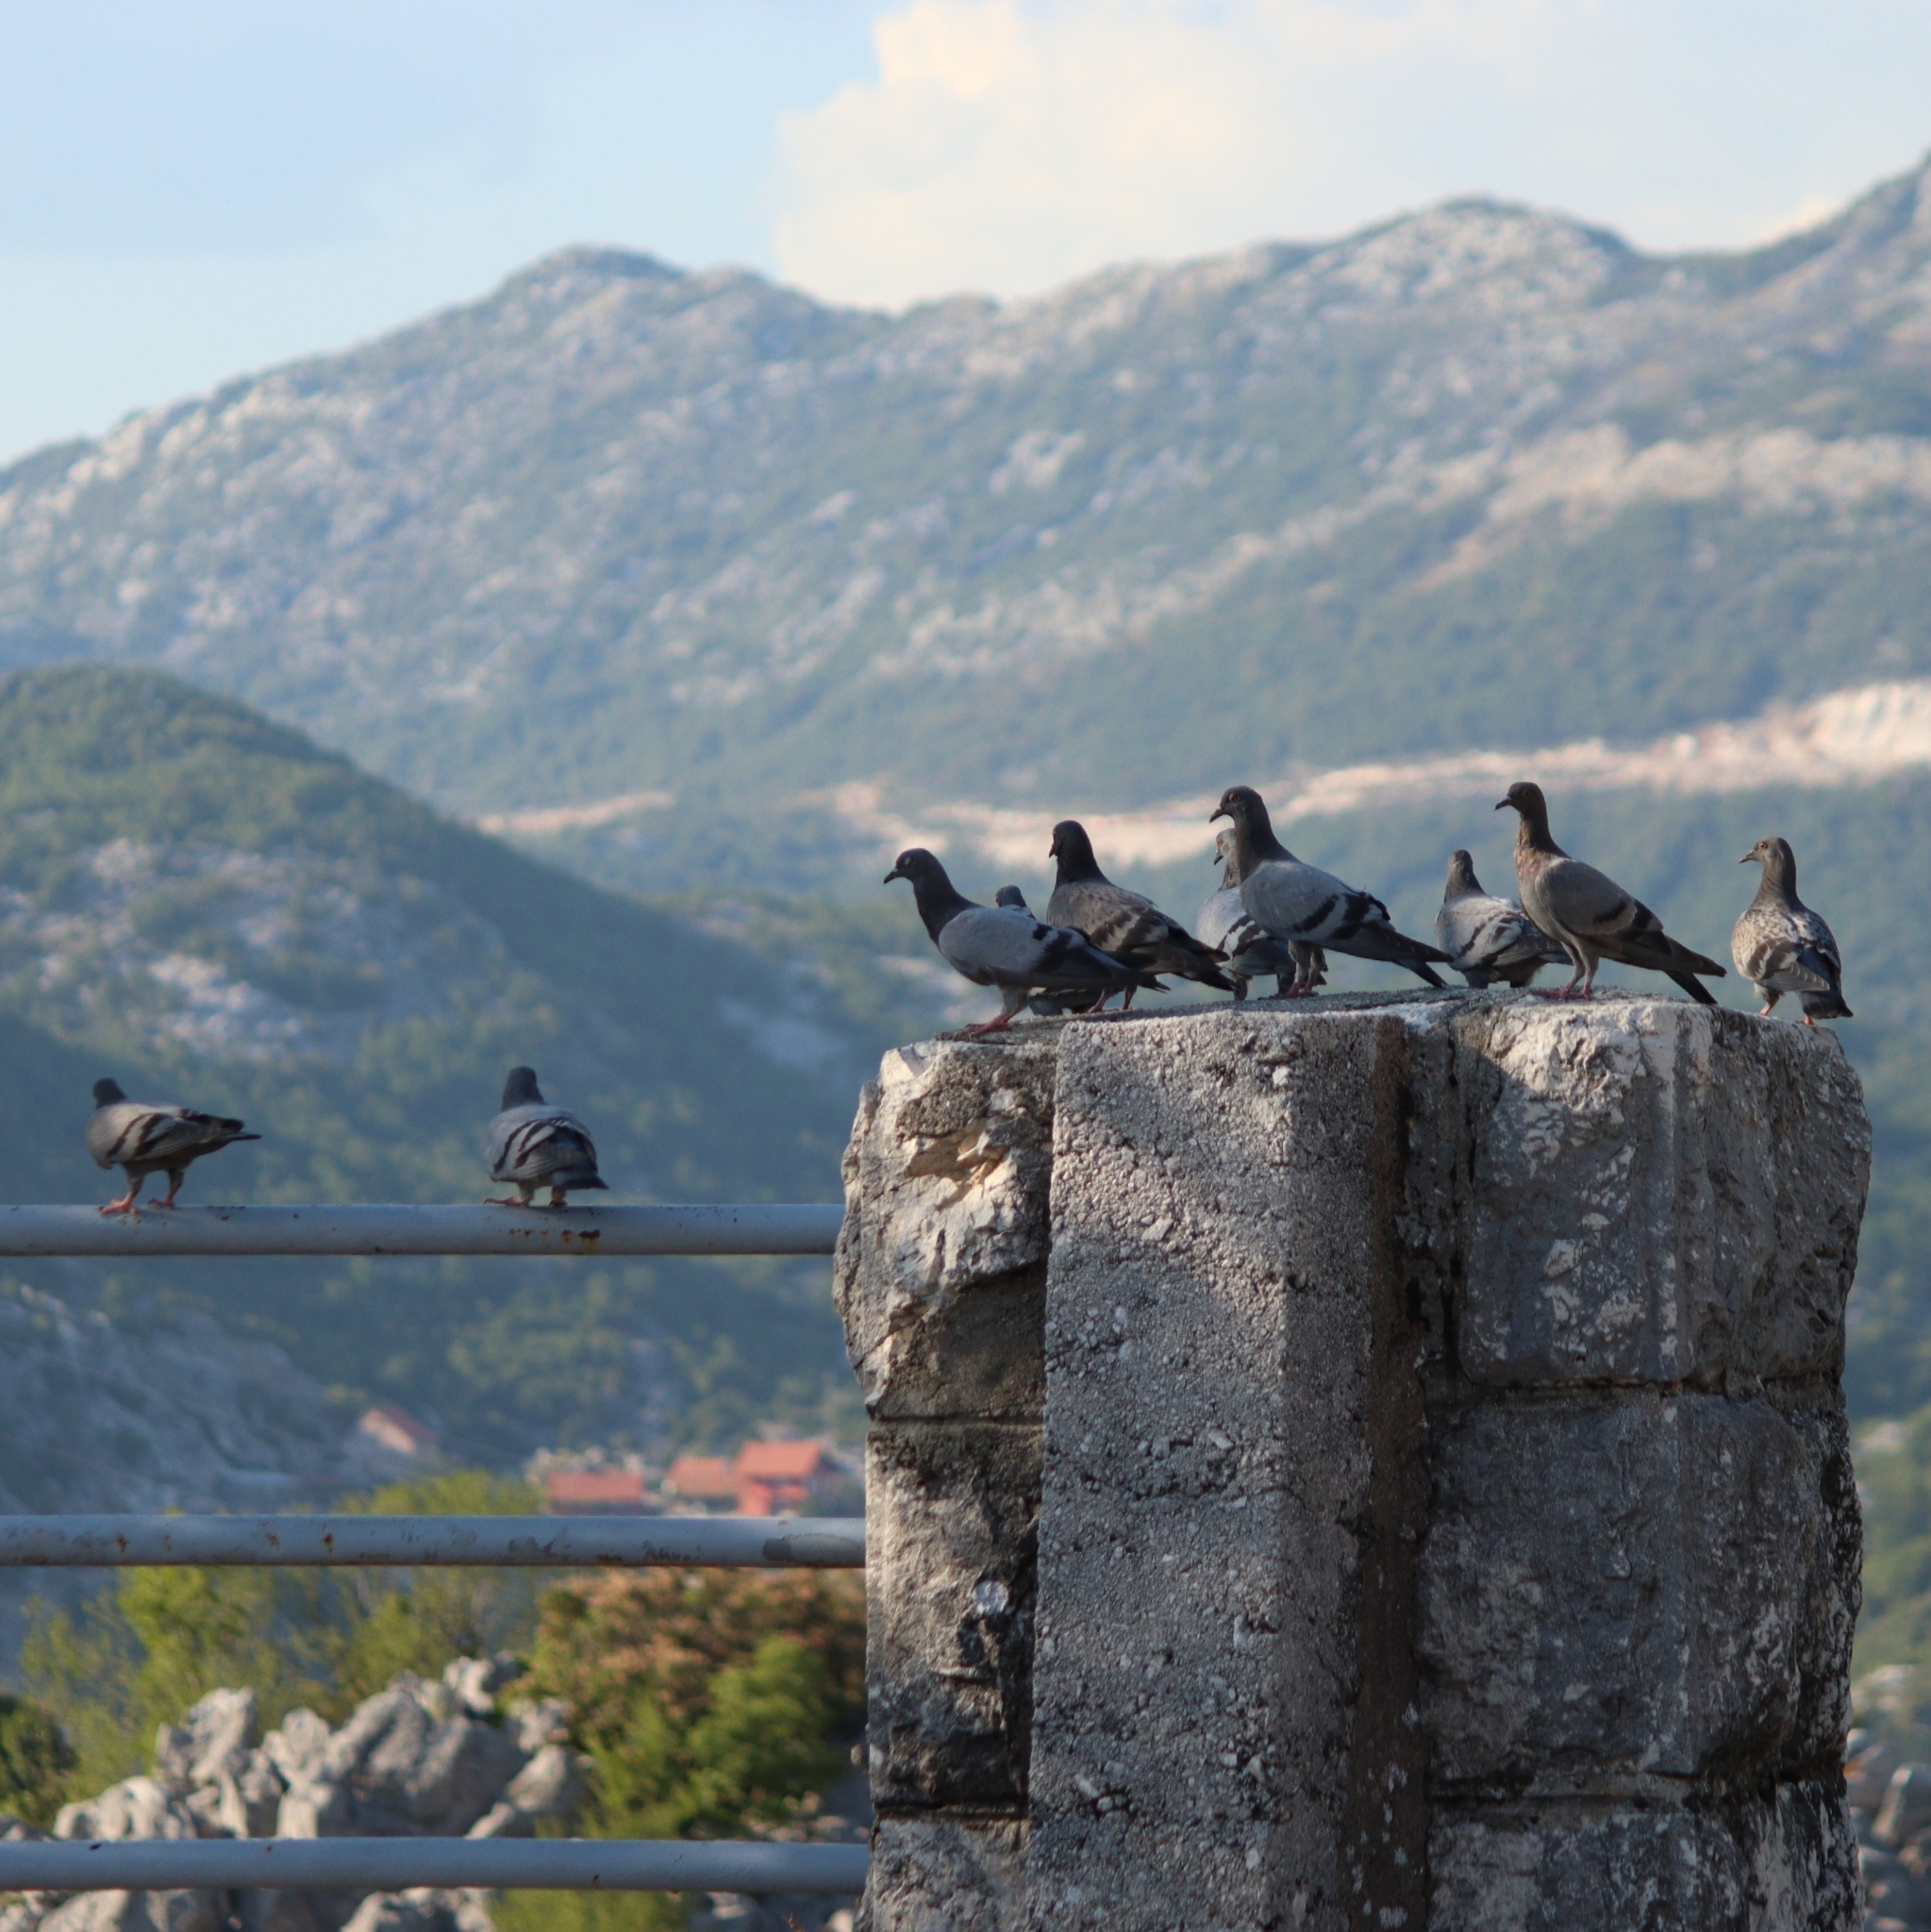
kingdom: Animalia
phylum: Chordata
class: Aves
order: Columbiformes
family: Columbidae
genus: Columba
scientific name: Columba livia
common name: Rock pigeon
